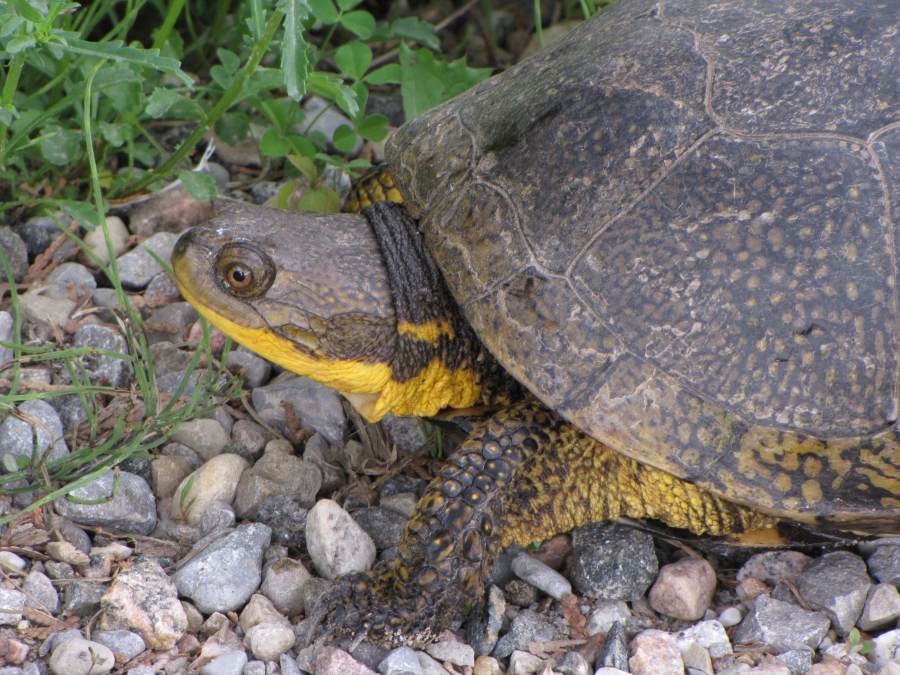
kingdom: Animalia
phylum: Chordata
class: Testudines
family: Emydidae
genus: Emys
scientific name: Emys blandingii
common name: Blanding's turtle
